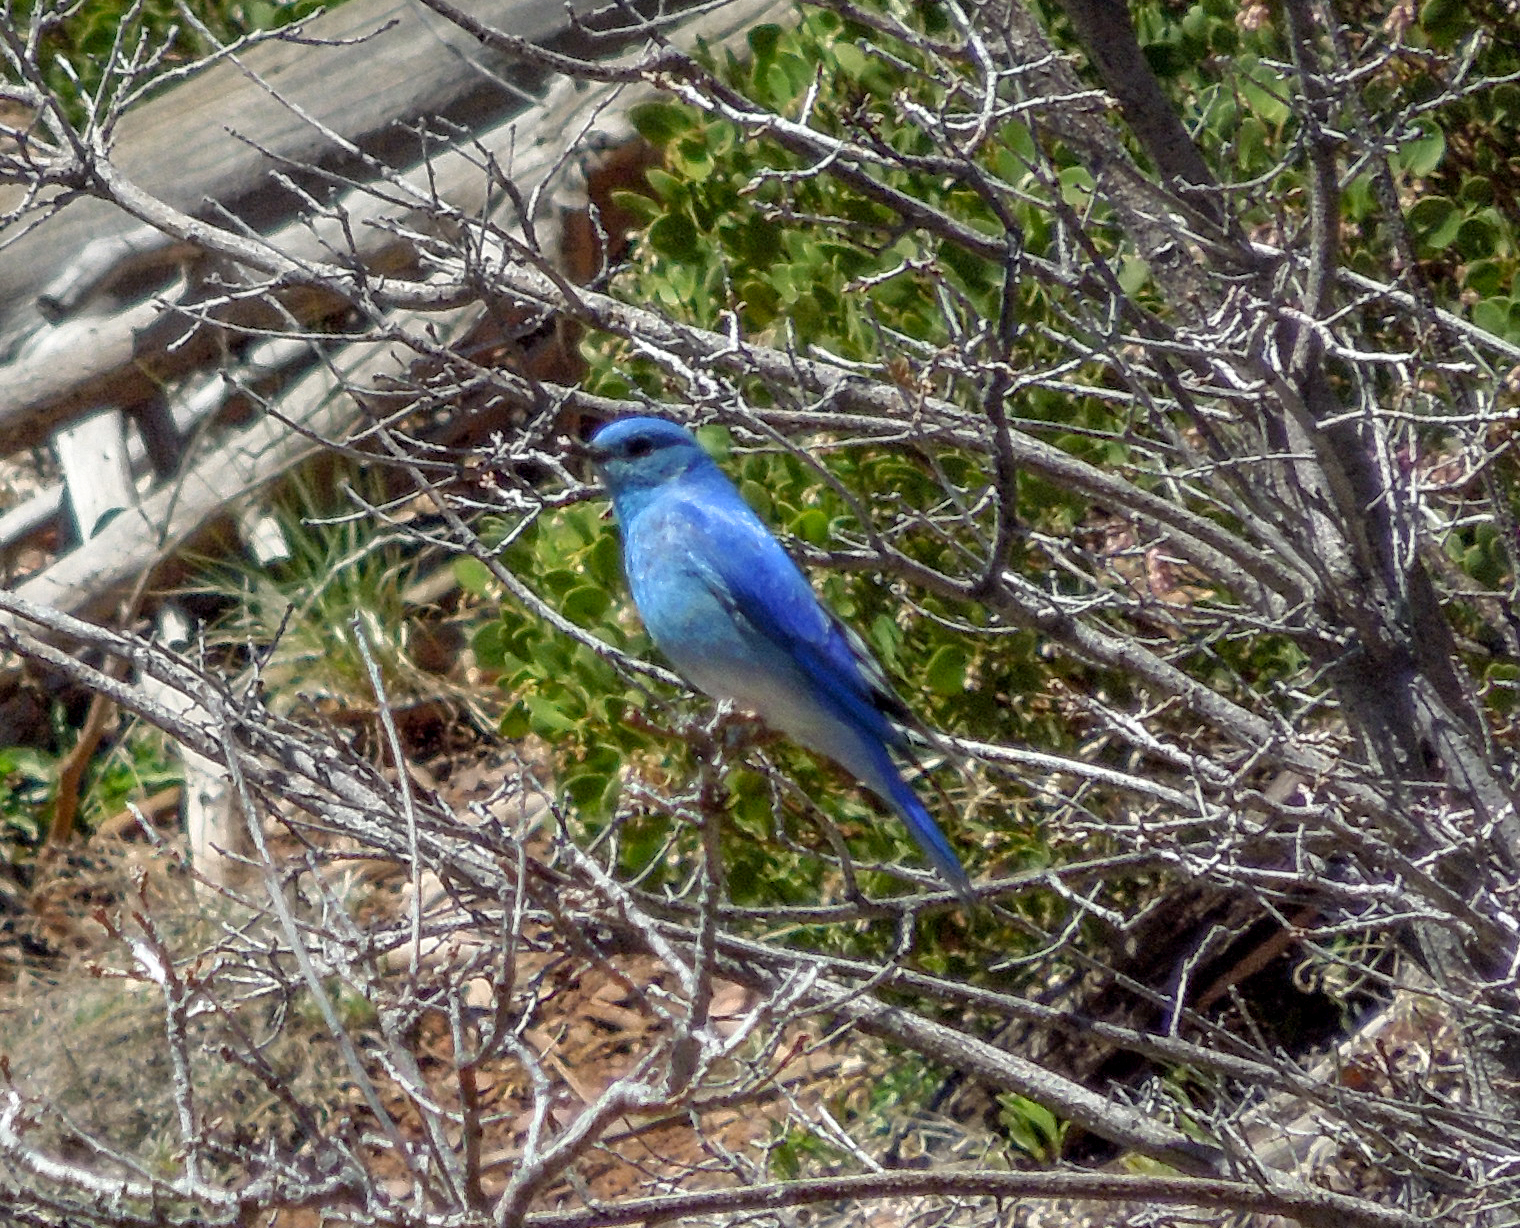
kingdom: Animalia
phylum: Chordata
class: Aves
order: Passeriformes
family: Turdidae
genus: Sialia
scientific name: Sialia currucoides
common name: Mountain bluebird
